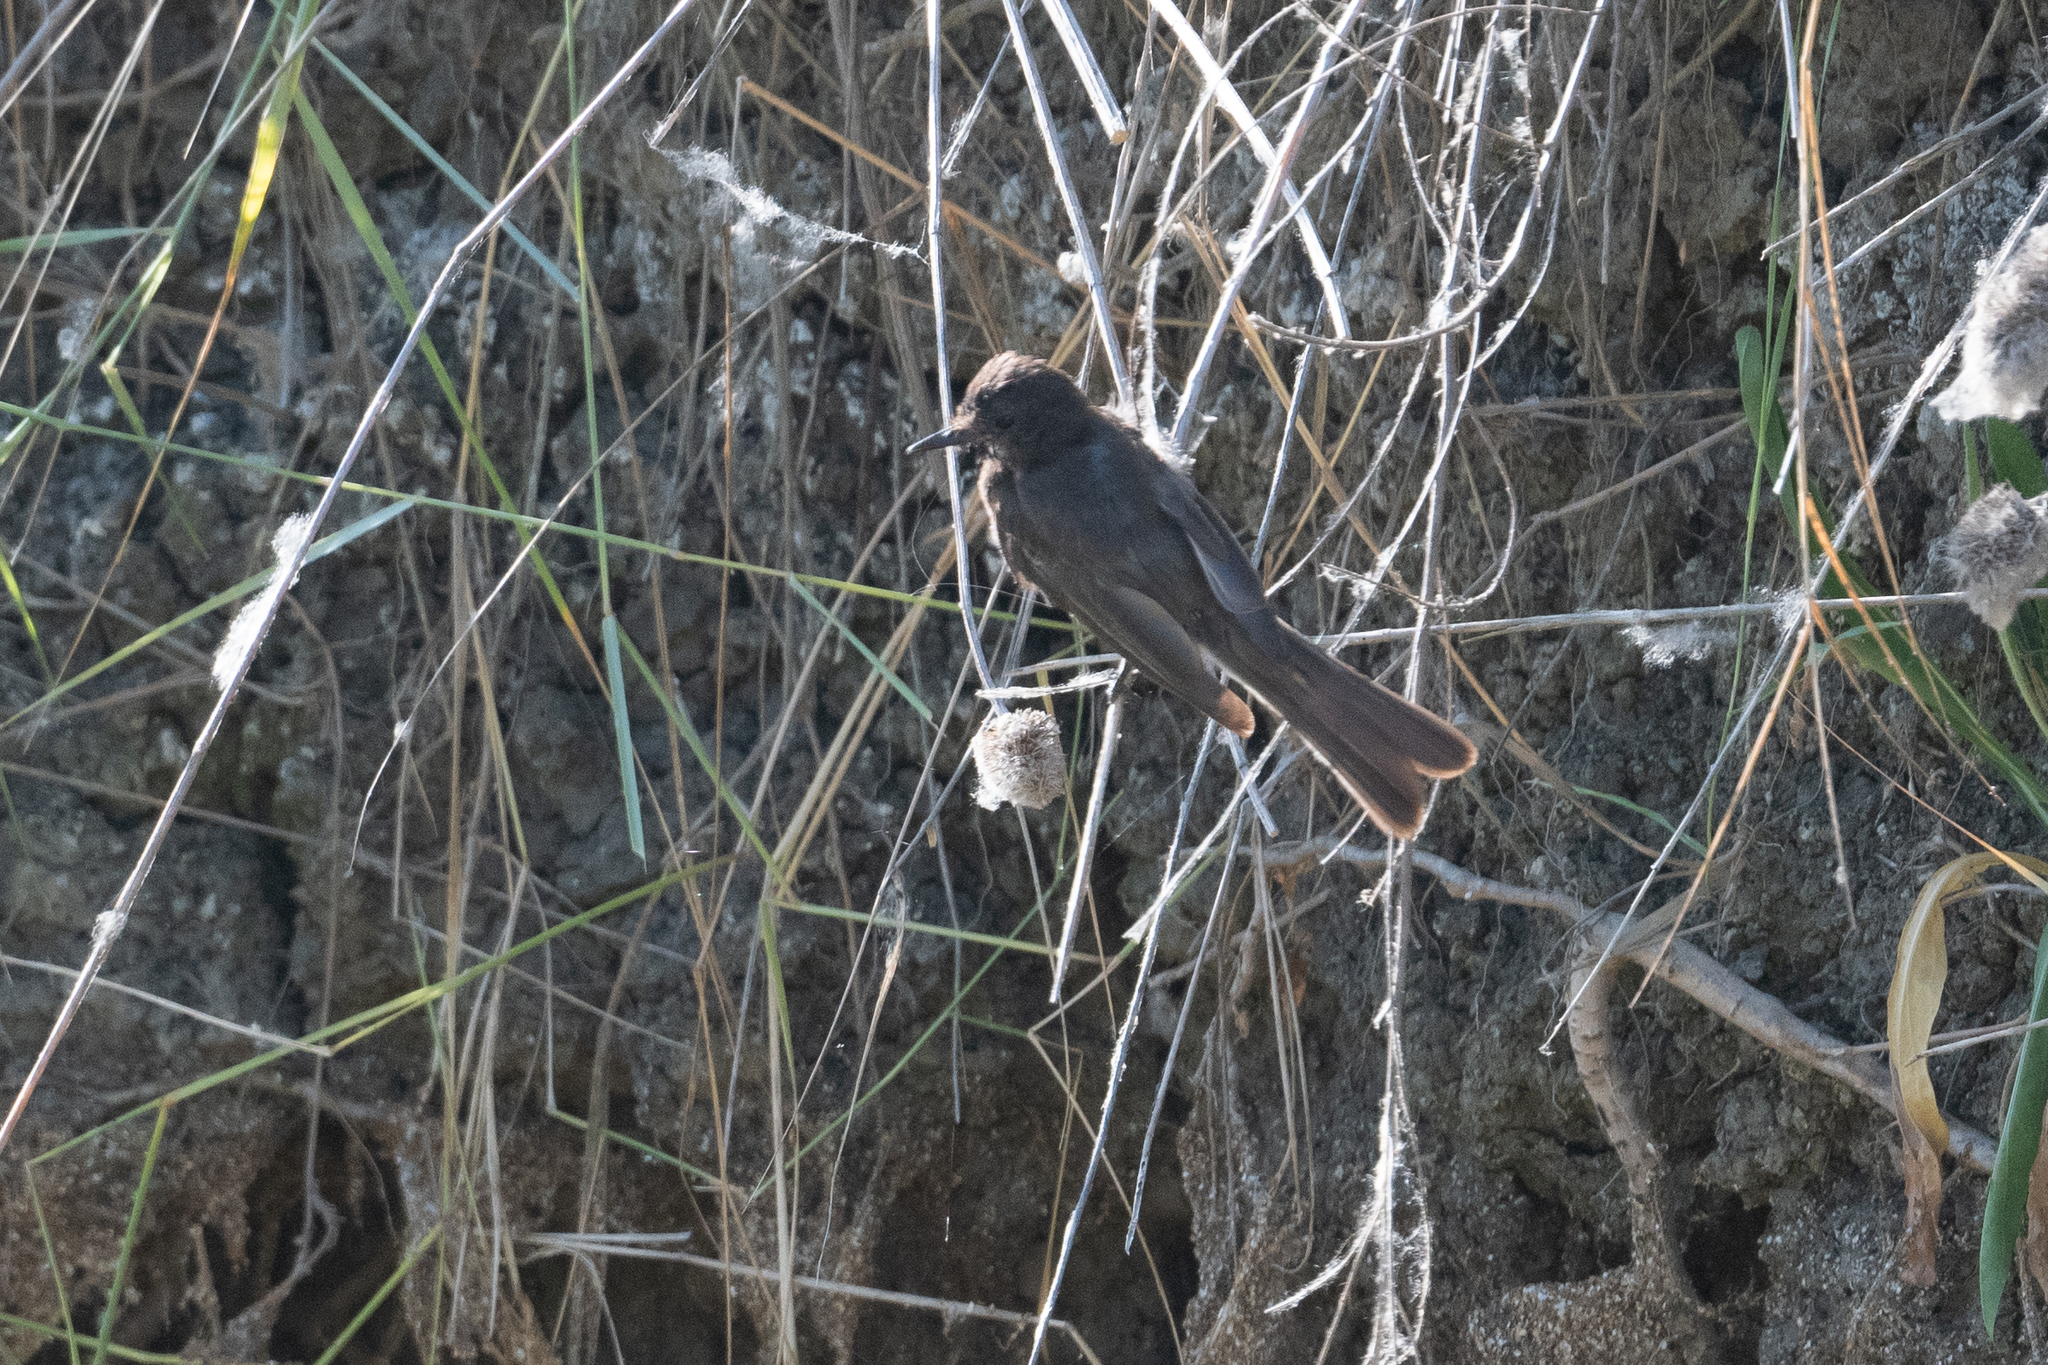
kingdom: Animalia
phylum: Chordata
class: Aves
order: Passeriformes
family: Tyrannidae
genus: Sayornis
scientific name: Sayornis nigricans
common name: Black phoebe
